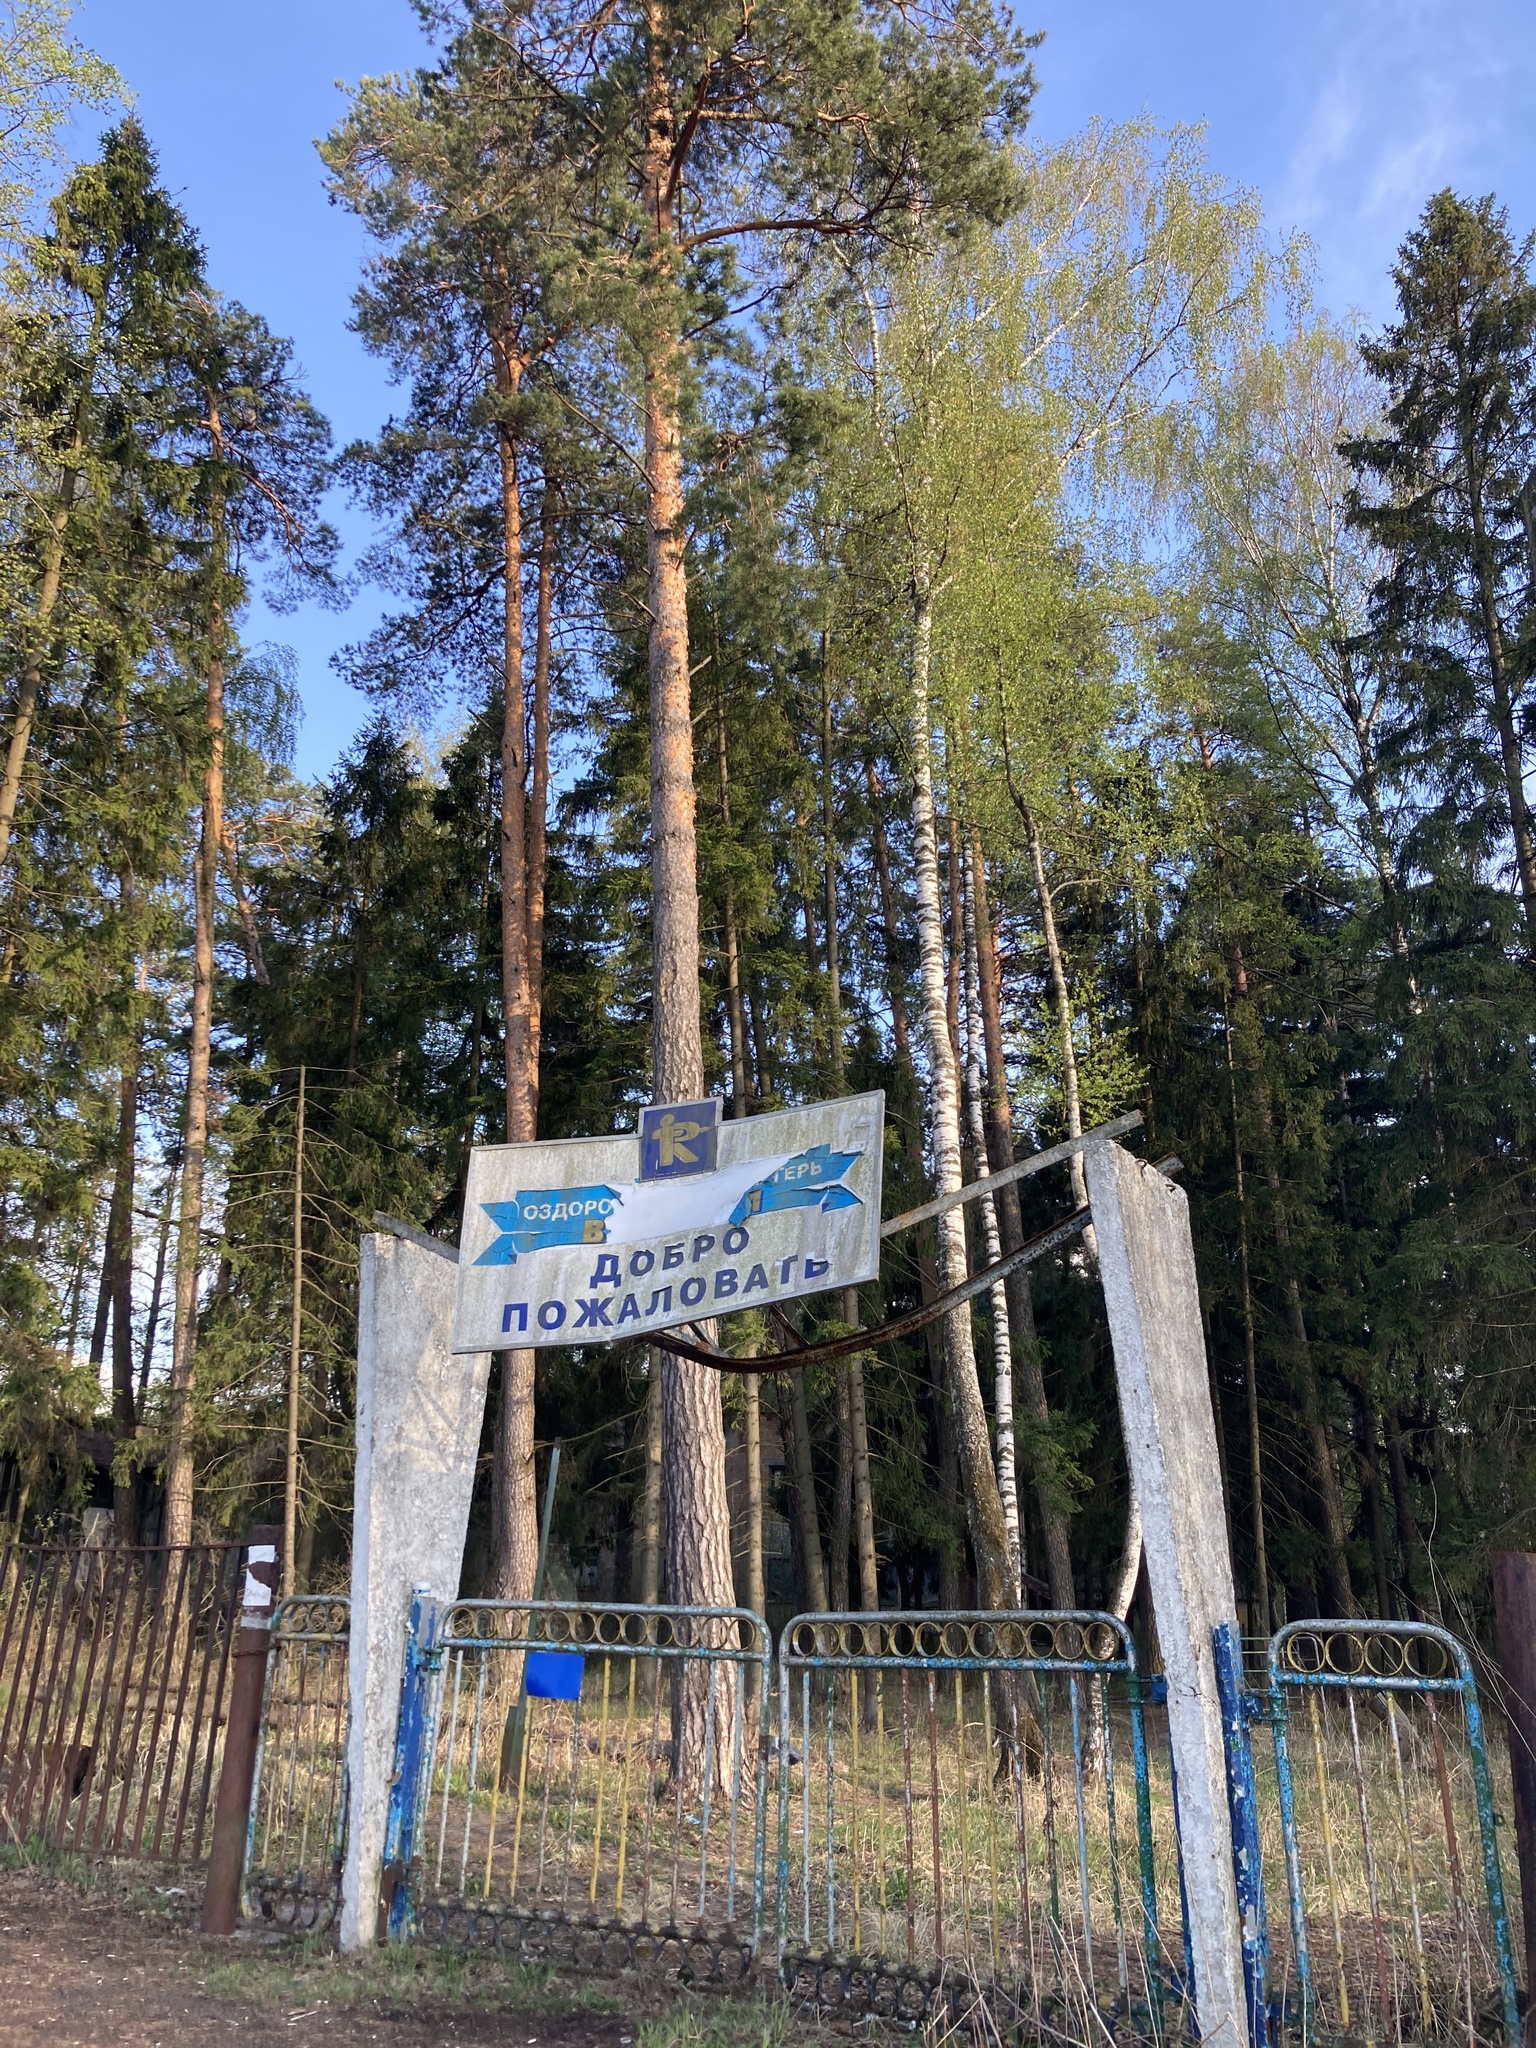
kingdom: Plantae
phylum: Tracheophyta
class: Pinopsida
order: Pinales
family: Pinaceae
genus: Pinus
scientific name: Pinus sylvestris
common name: Scots pine
